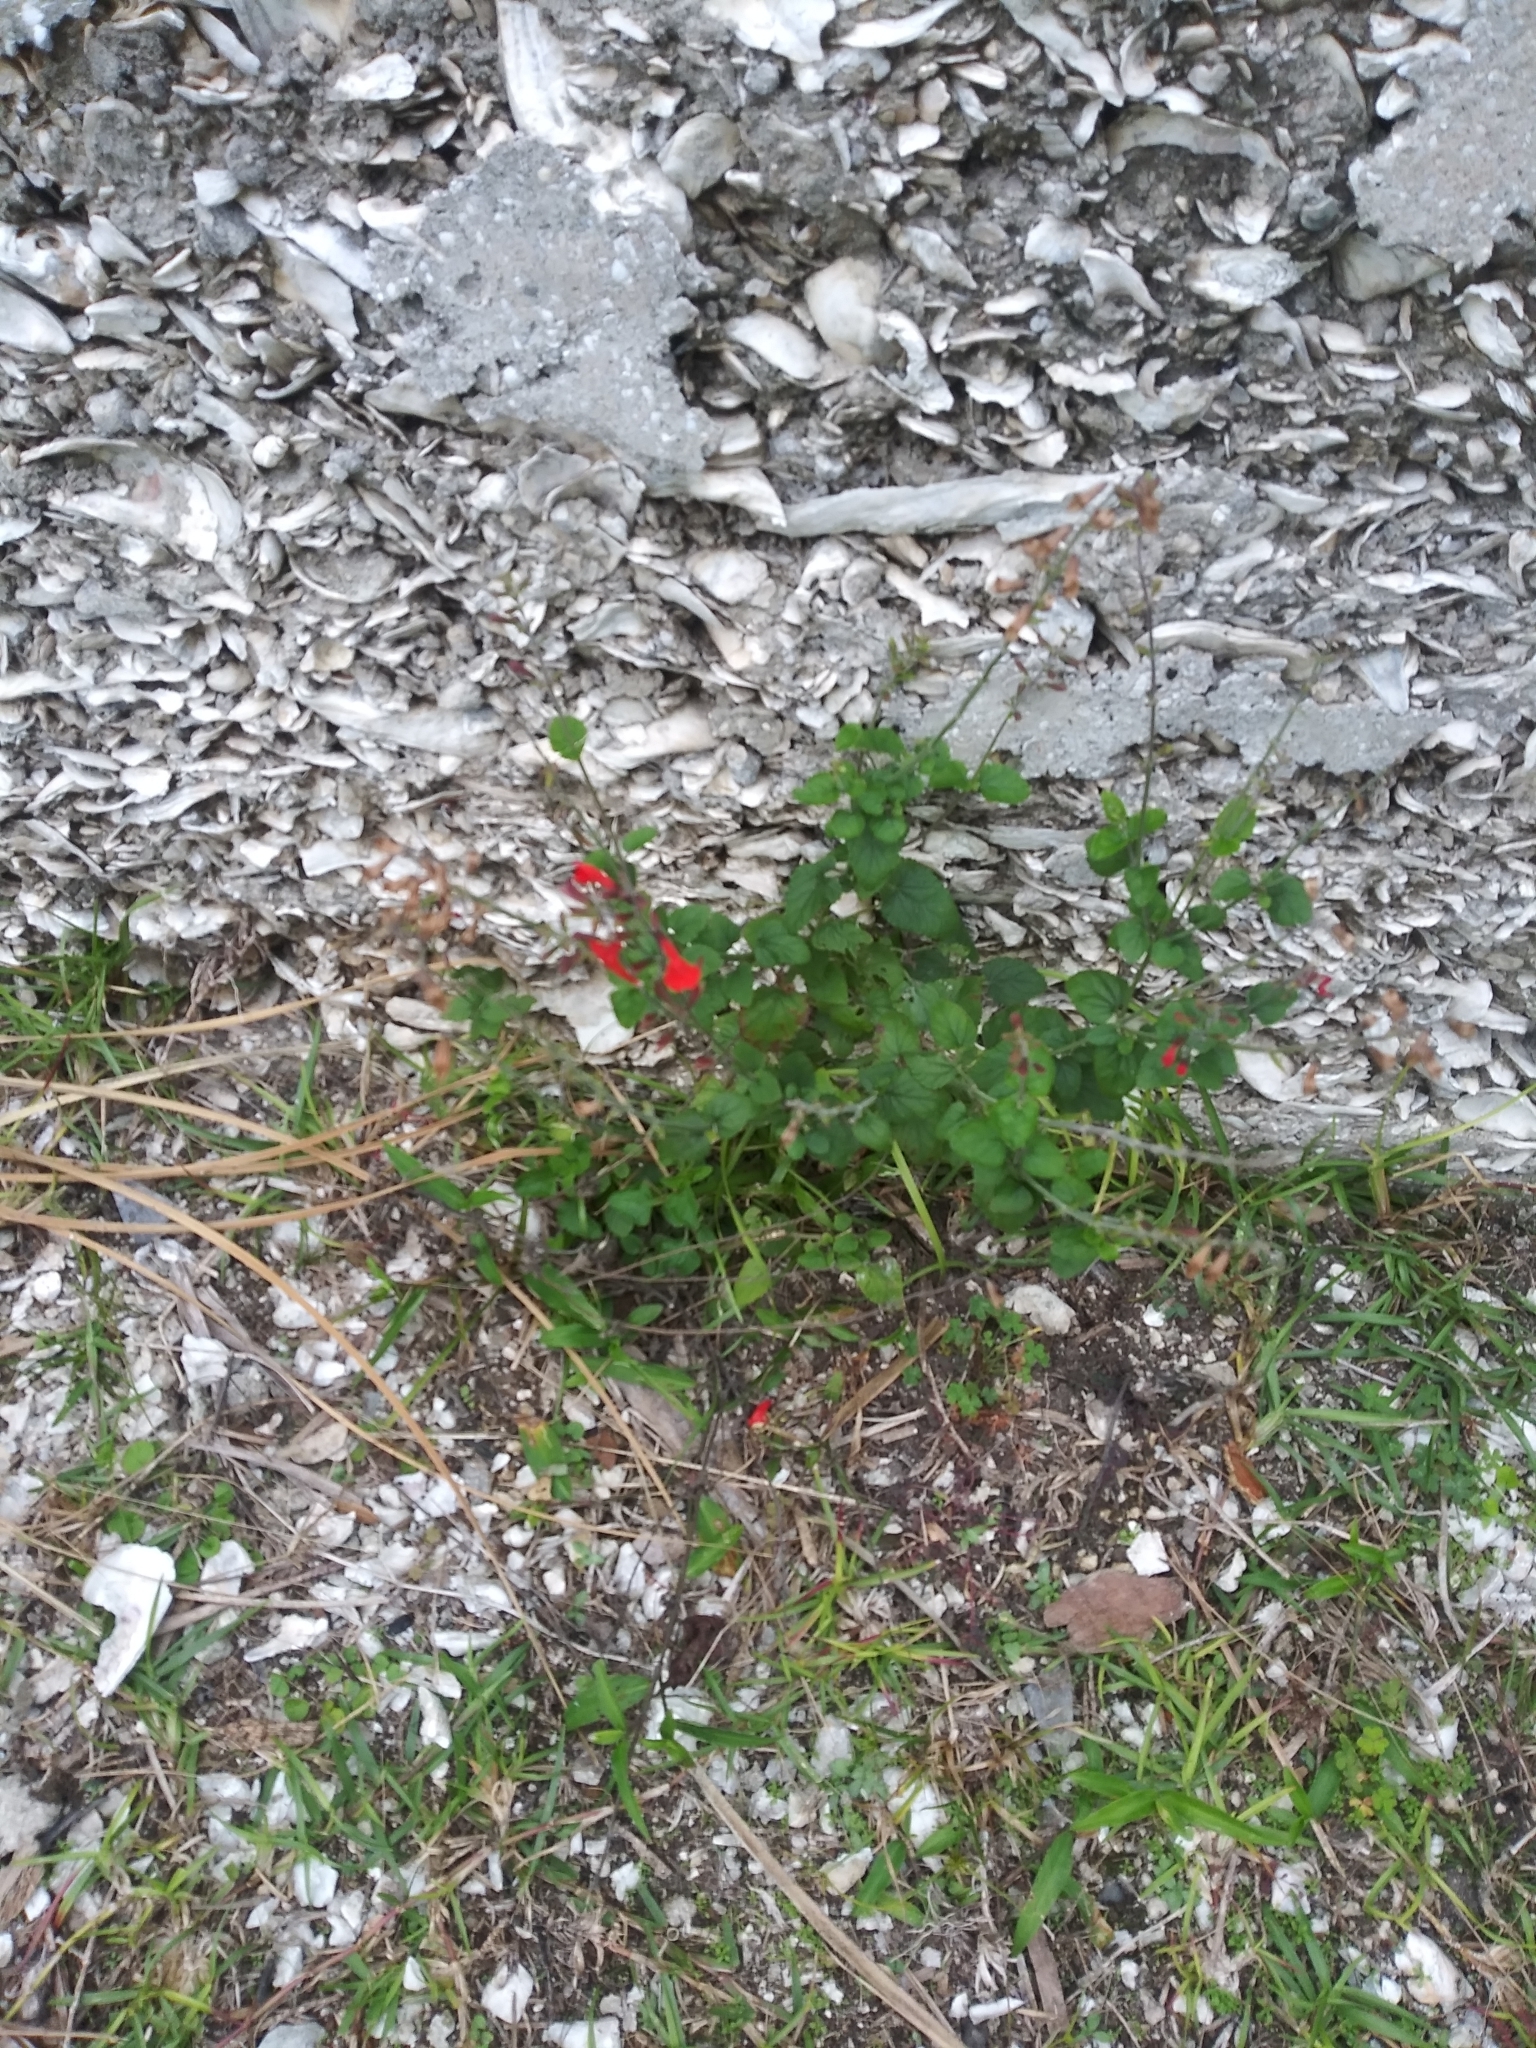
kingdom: Plantae
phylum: Tracheophyta
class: Magnoliopsida
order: Lamiales
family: Lamiaceae
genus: Salvia
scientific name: Salvia coccinea
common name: Blood sage
